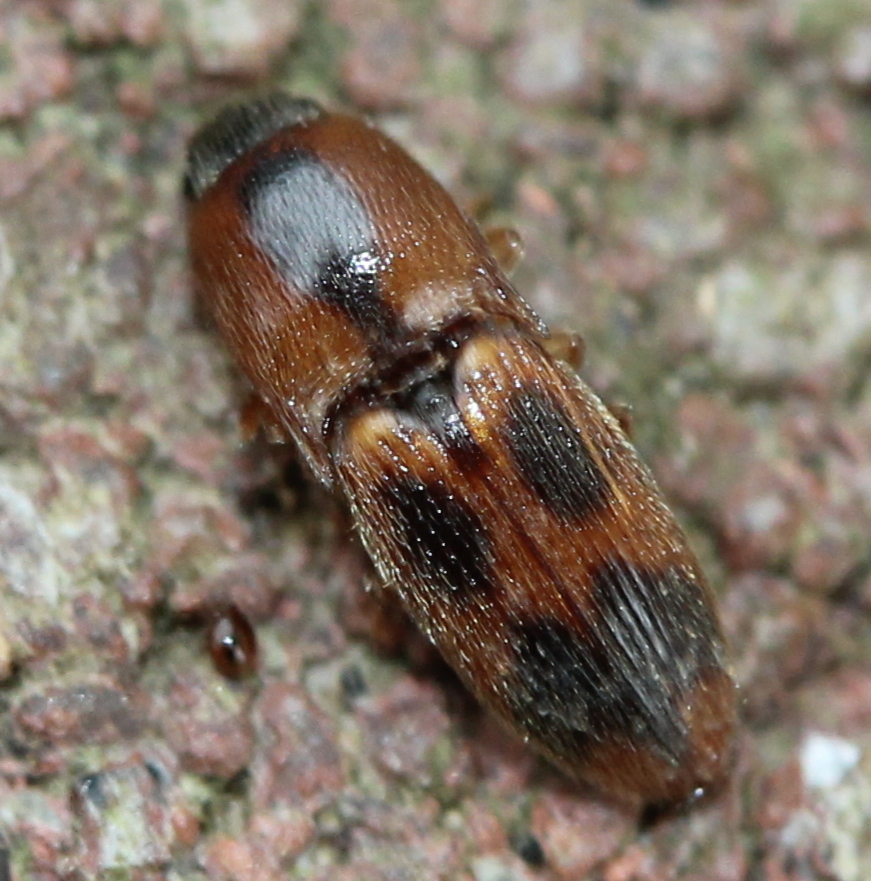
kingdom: Animalia
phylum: Arthropoda
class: Insecta
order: Coleoptera
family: Elateridae
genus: Aeolus
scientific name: Aeolus mellillus
